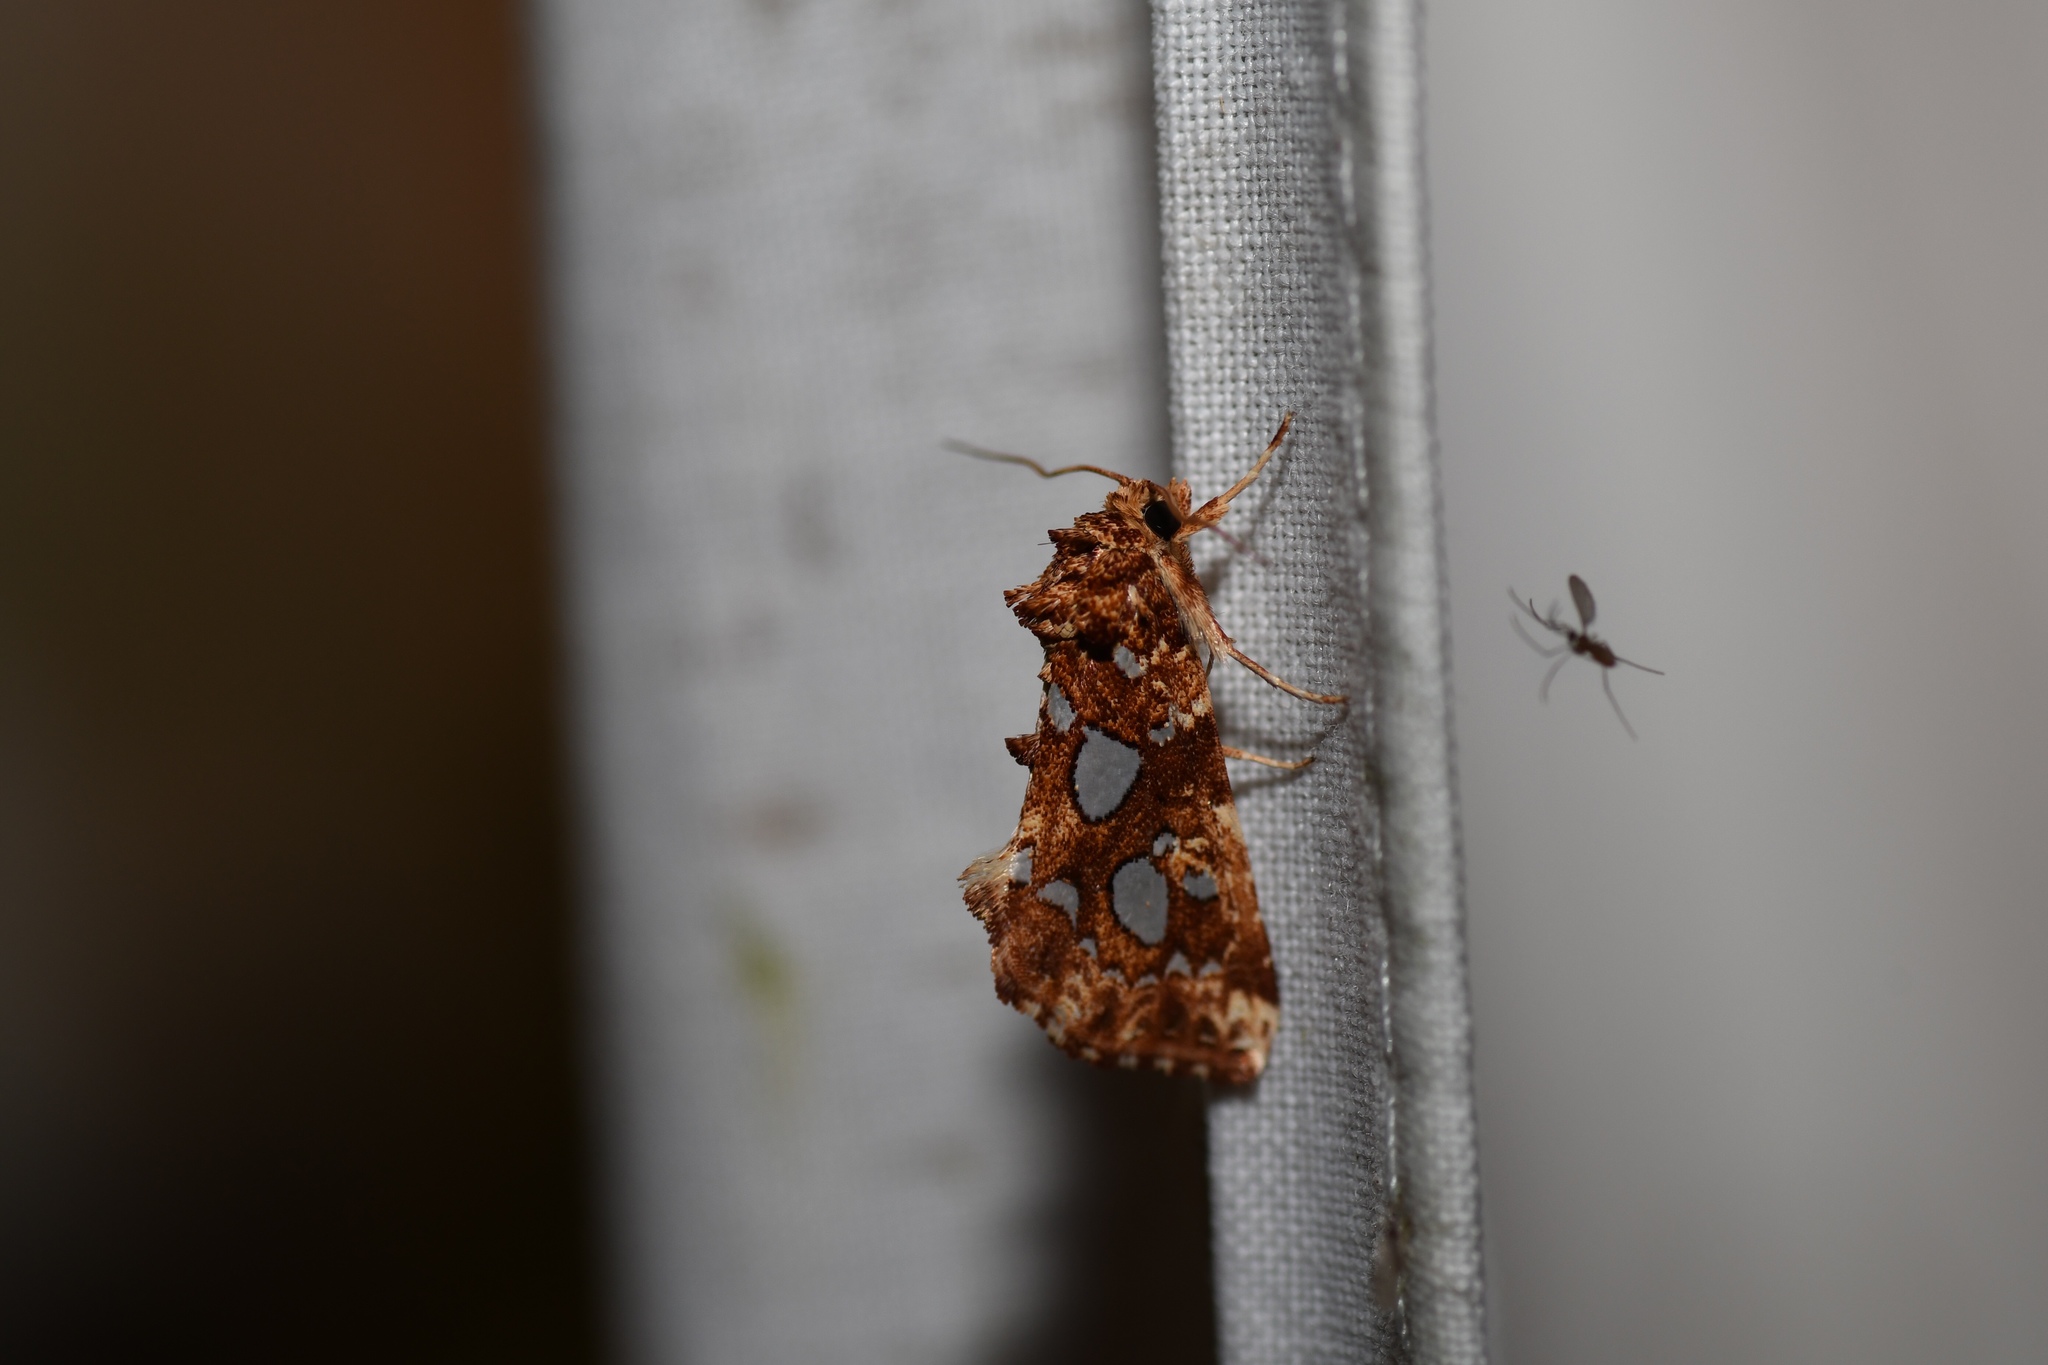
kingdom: Animalia
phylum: Arthropoda
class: Insecta
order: Lepidoptera
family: Noctuidae
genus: Callopistria
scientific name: Callopistria cordata
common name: Silver-spotted fern moth
